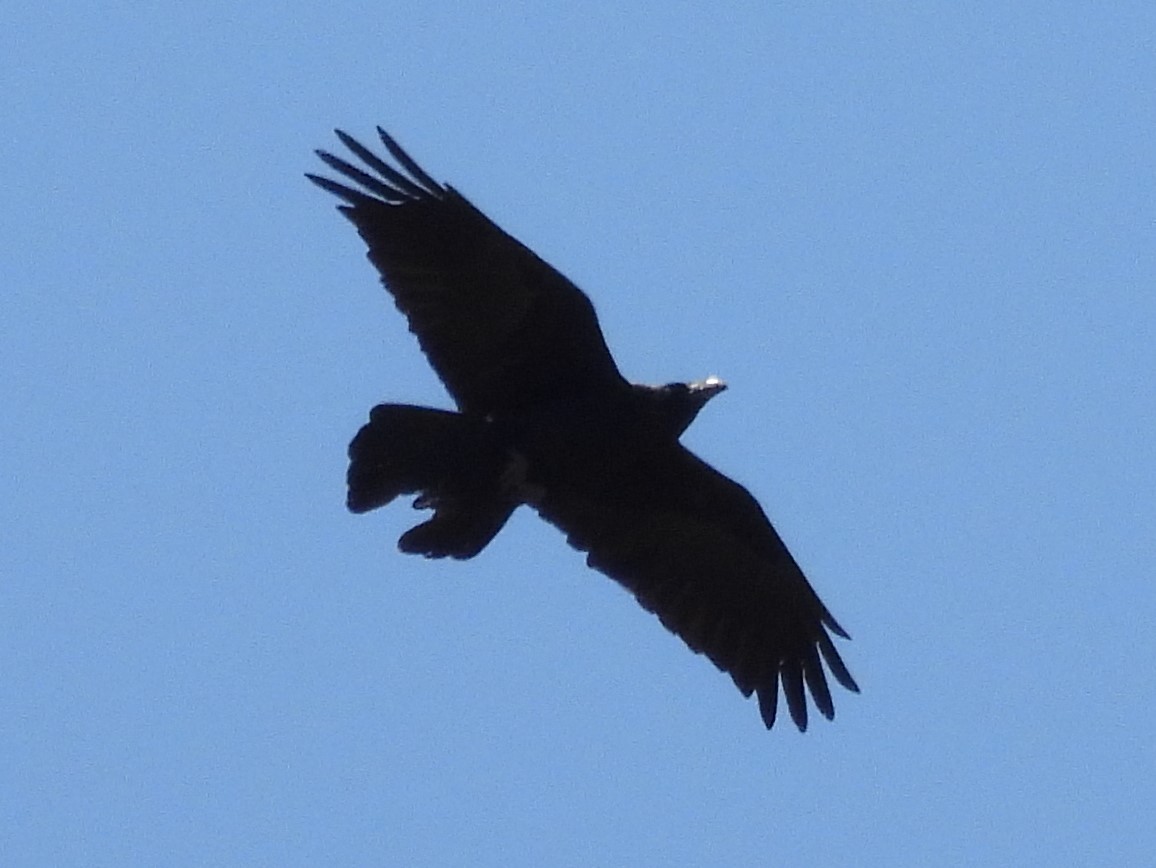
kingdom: Animalia
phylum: Chordata
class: Aves
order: Passeriformes
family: Corvidae
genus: Corvus
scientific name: Corvus corax
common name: Common raven
